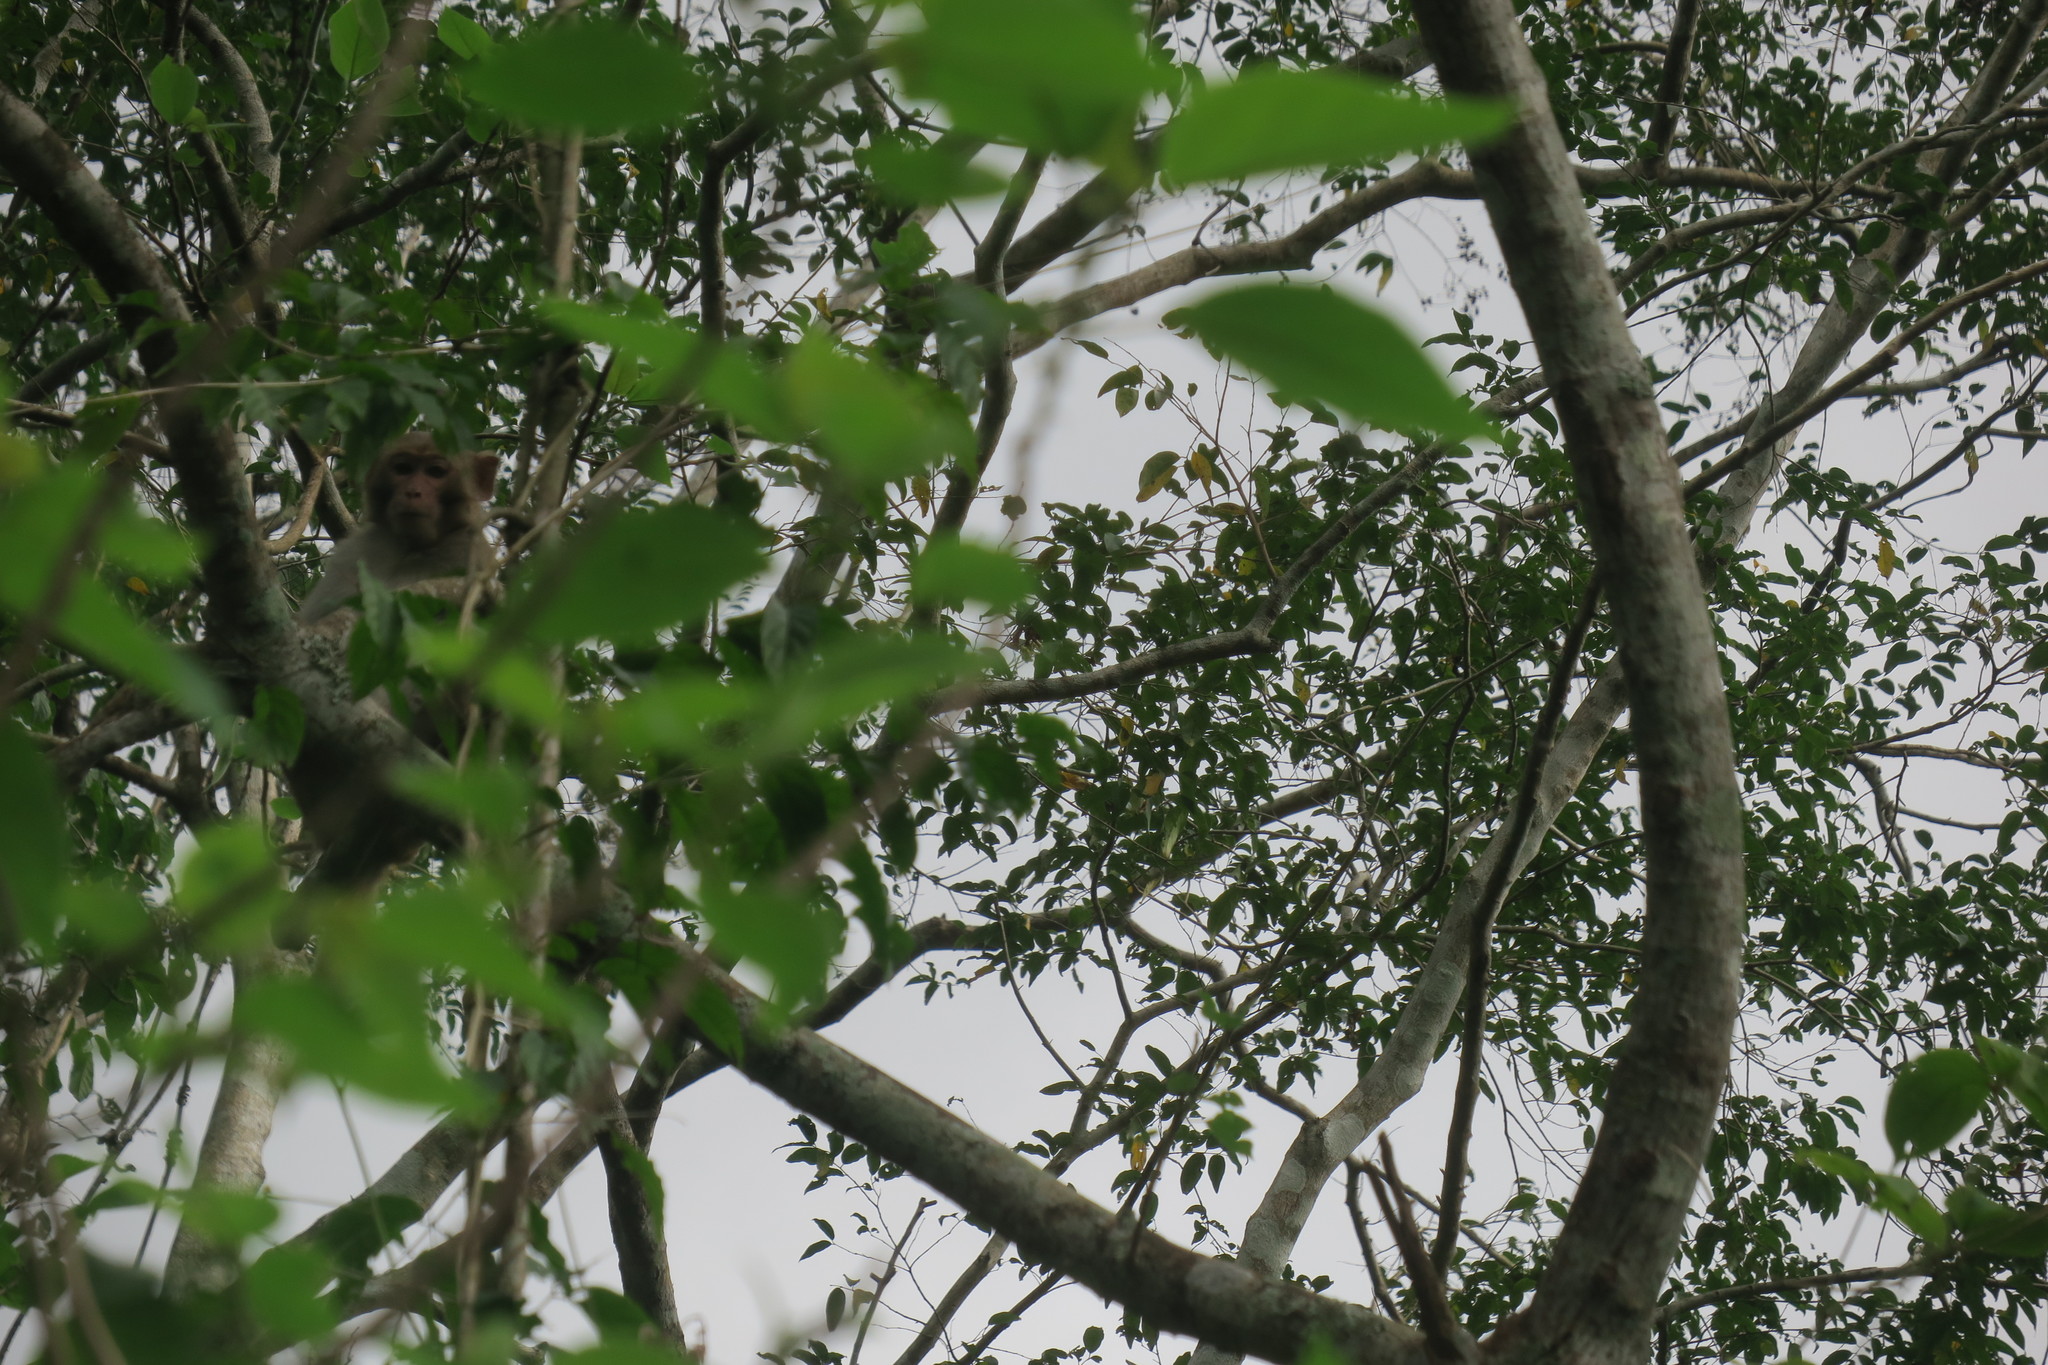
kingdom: Animalia
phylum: Chordata
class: Mammalia
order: Primates
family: Cercopithecidae
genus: Macaca
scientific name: Macaca mulatta
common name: Rhesus monkey
